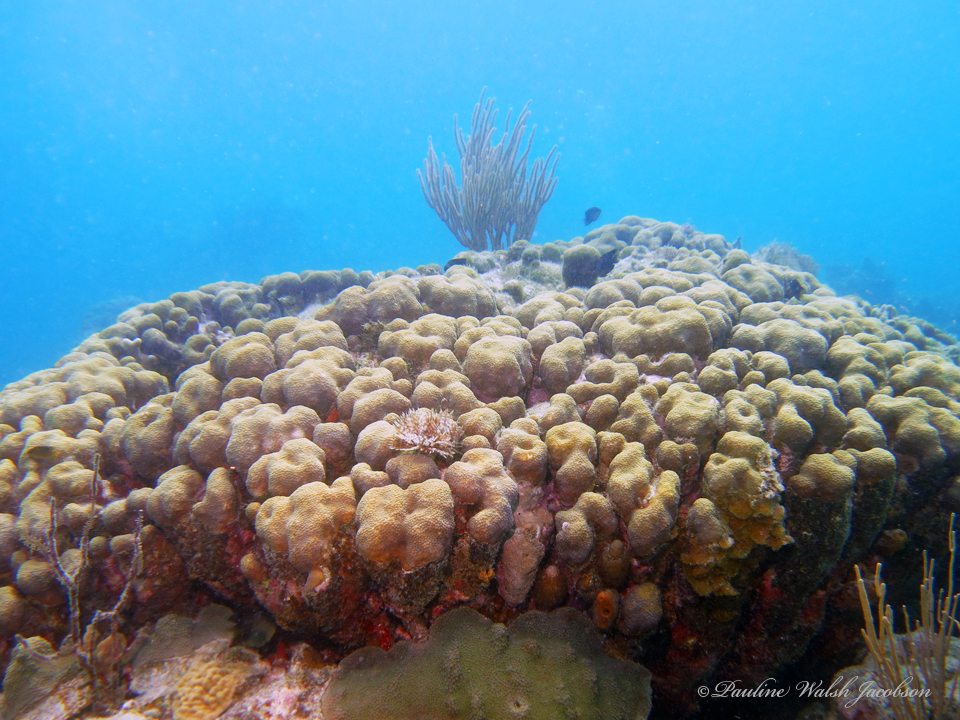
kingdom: Animalia
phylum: Cnidaria
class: Anthozoa
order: Scleractinia
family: Merulinidae
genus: Orbicella
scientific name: Orbicella annularis
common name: Boulder star coral
